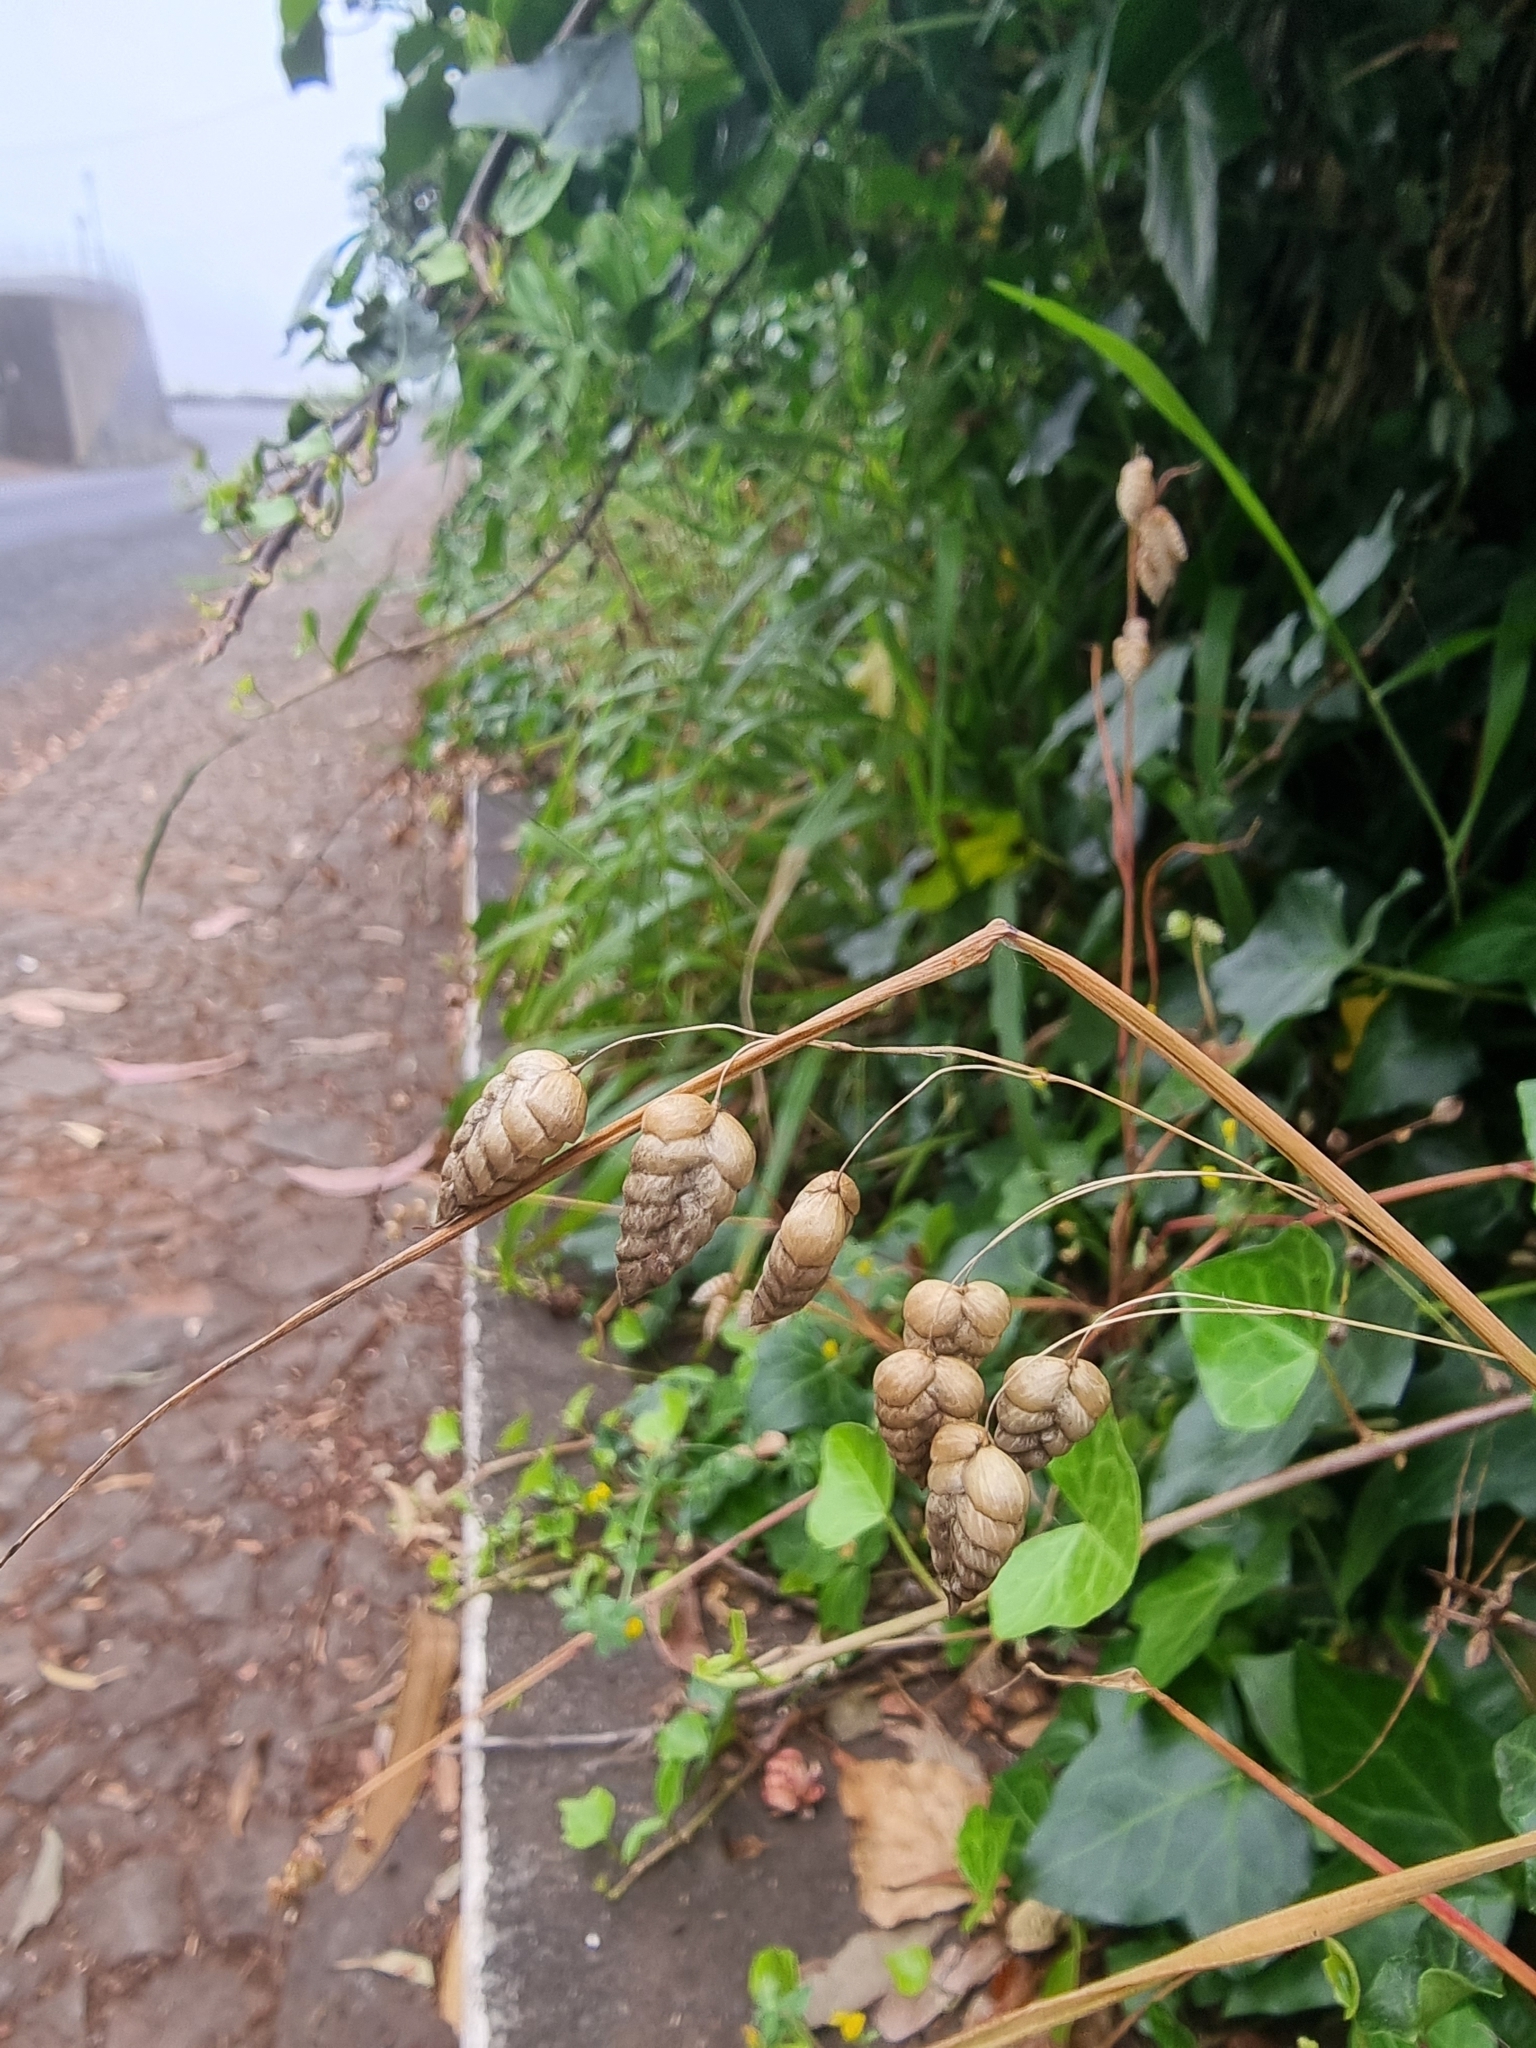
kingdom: Plantae
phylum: Tracheophyta
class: Liliopsida
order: Poales
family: Poaceae
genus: Briza
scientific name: Briza maxima
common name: Big quakinggrass
